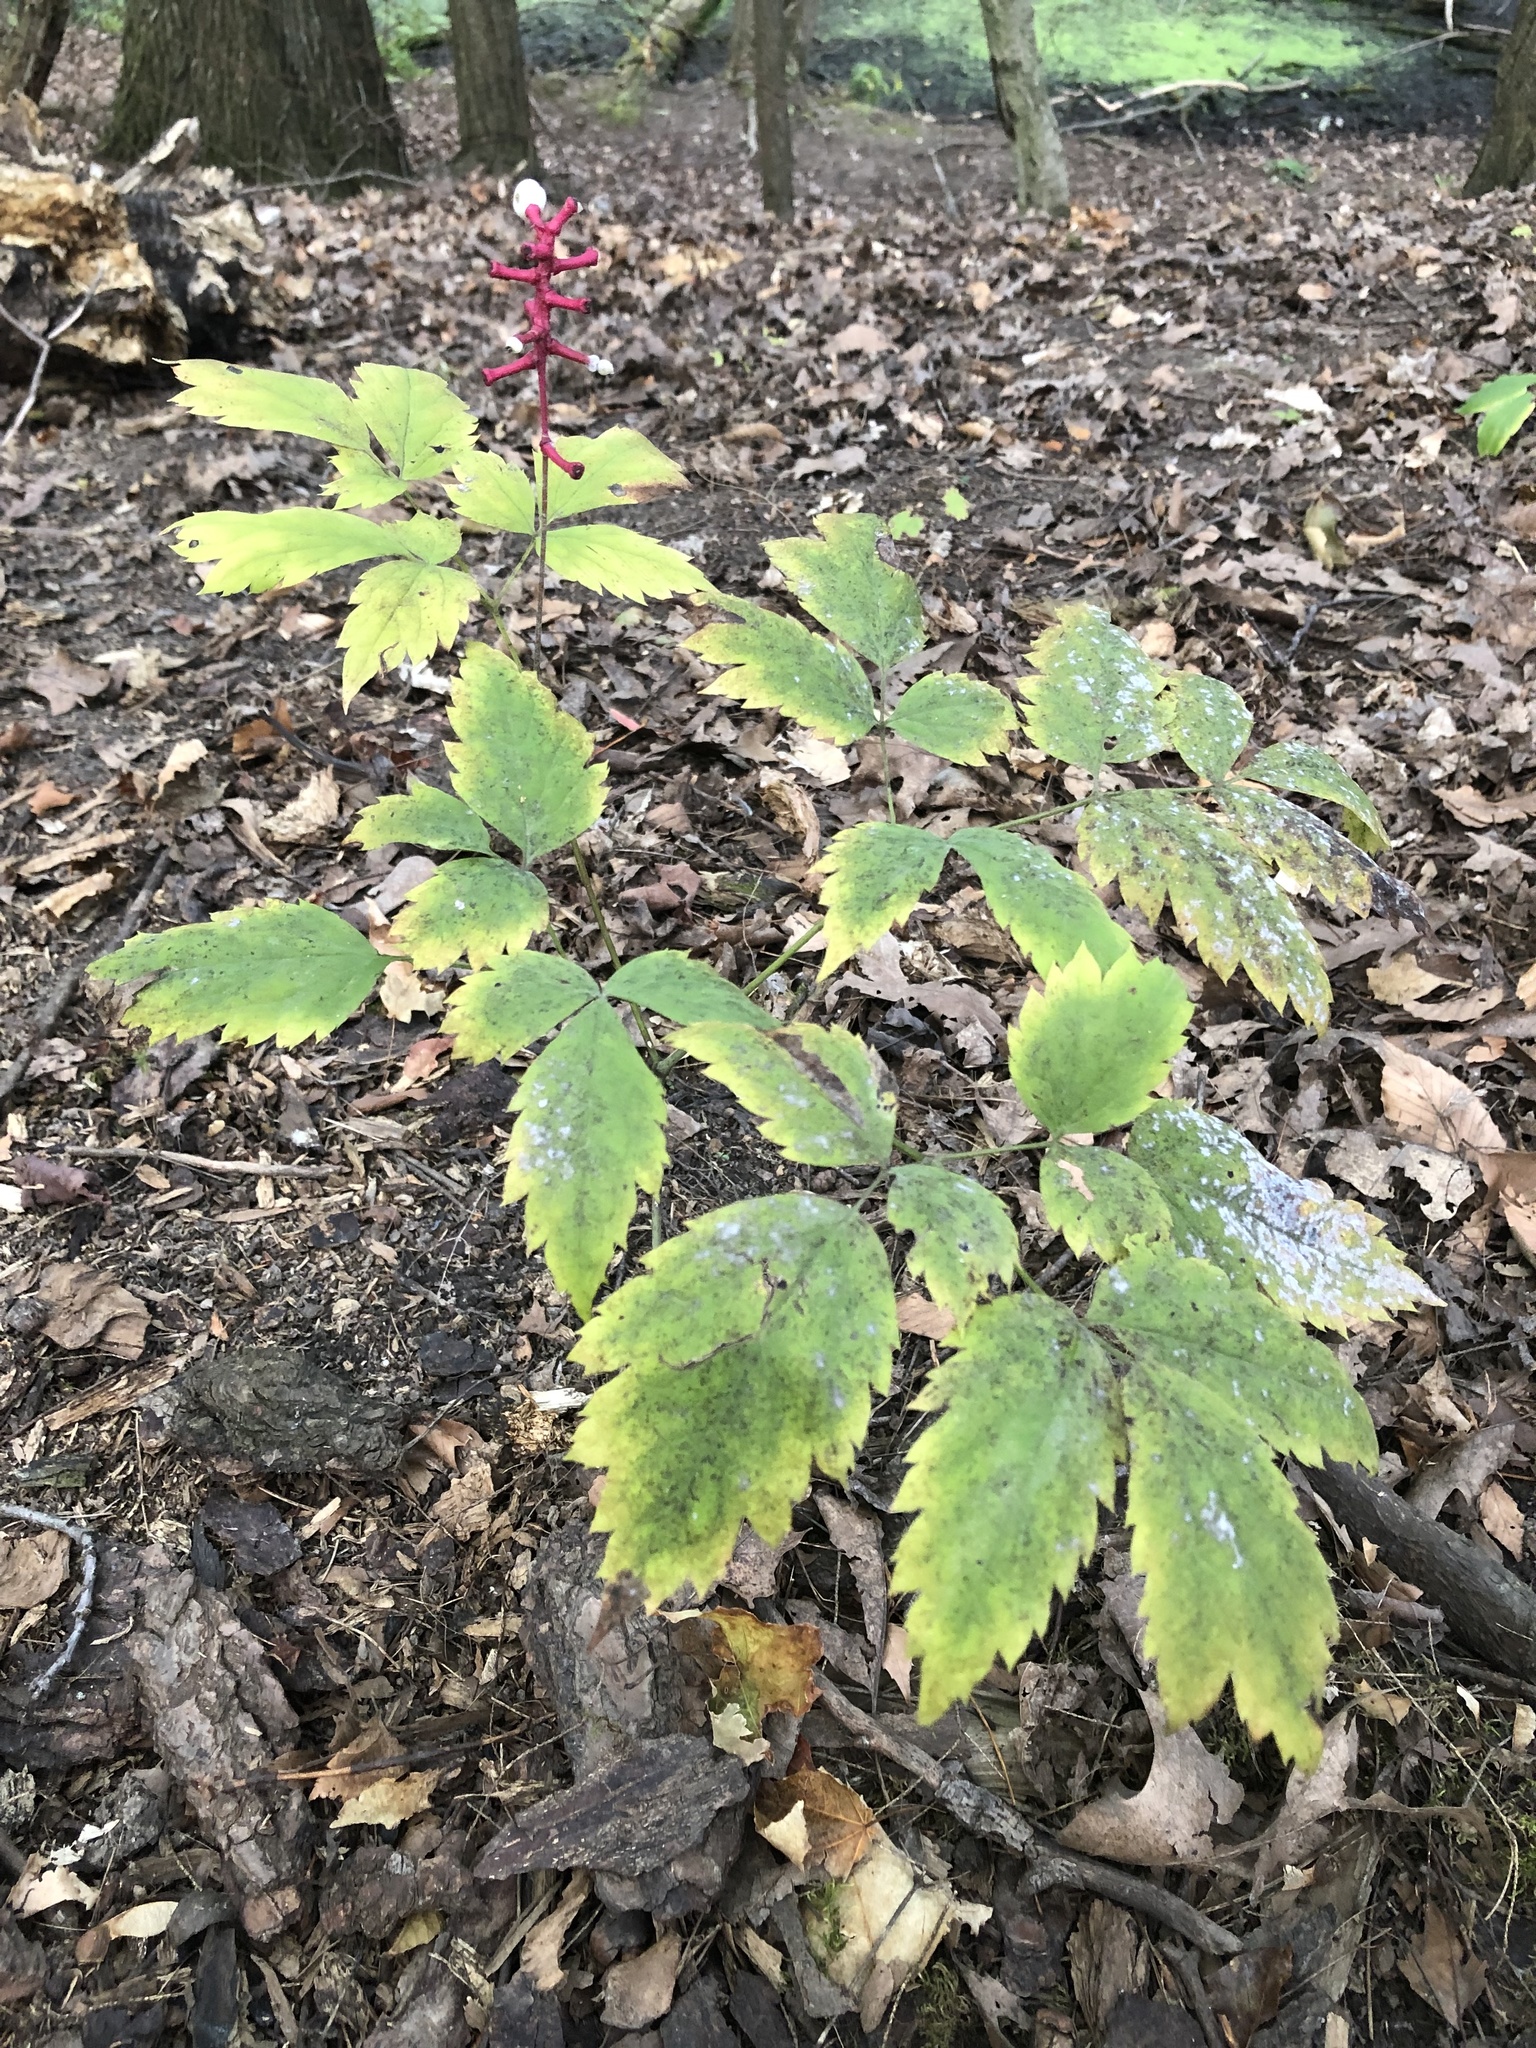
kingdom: Plantae
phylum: Tracheophyta
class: Magnoliopsida
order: Ranunculales
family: Ranunculaceae
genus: Actaea
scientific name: Actaea pachypoda
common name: Doll's-eyes
